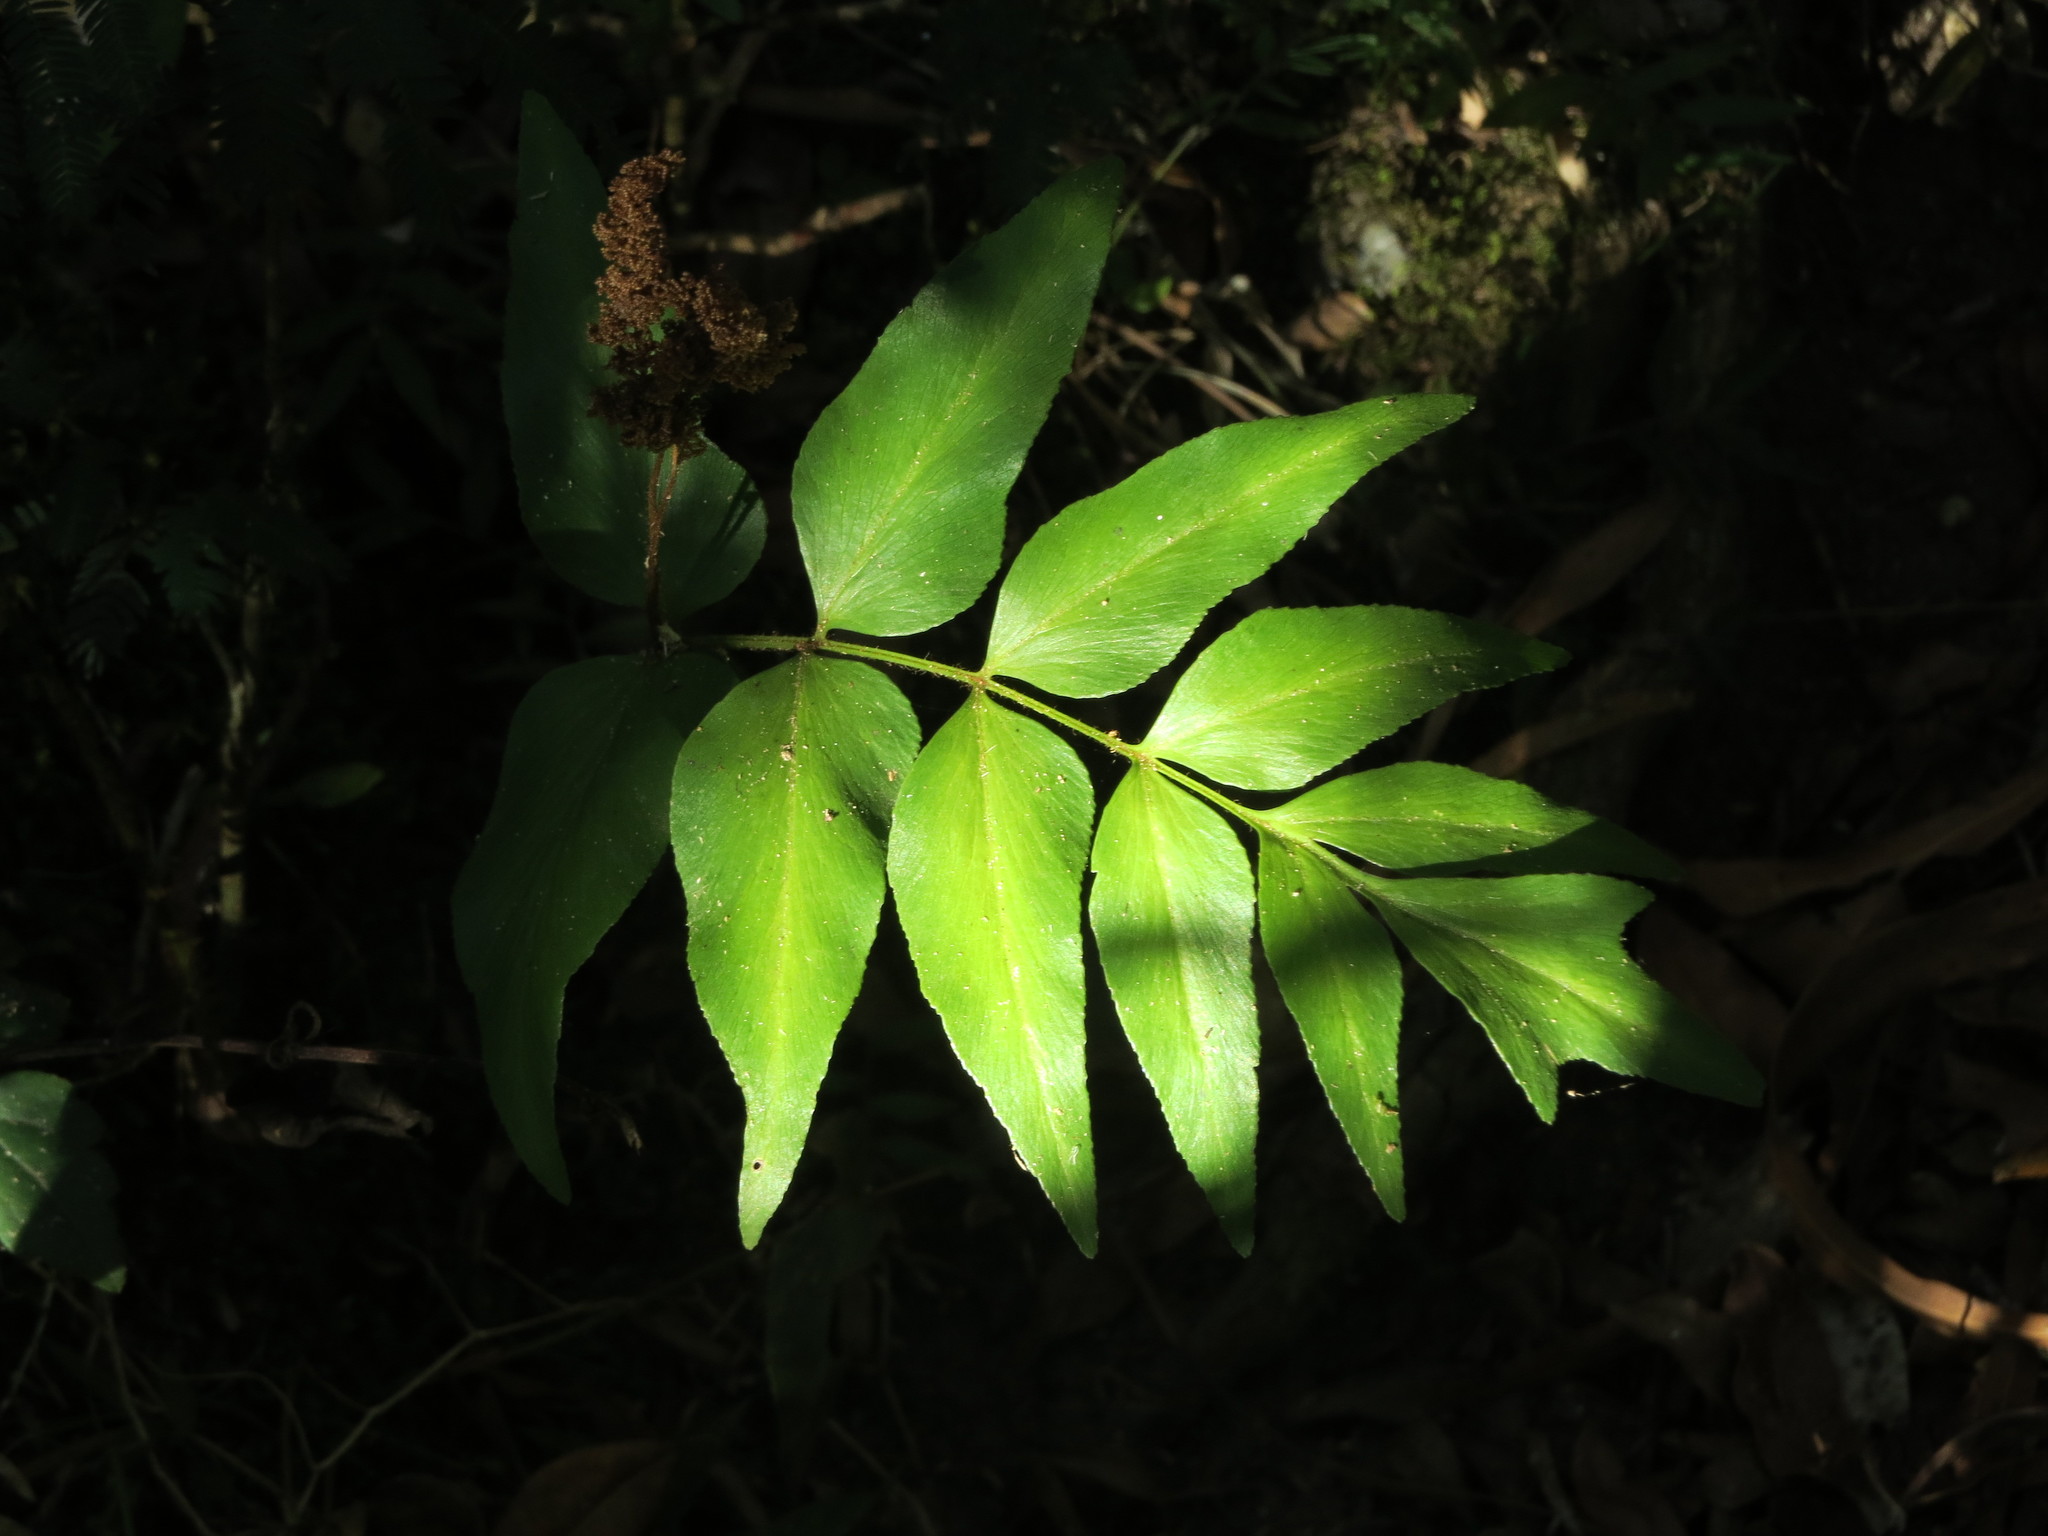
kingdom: Plantae
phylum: Tracheophyta
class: Polypodiopsida
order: Schizaeales
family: Anemiaceae
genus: Anemia
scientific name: Anemia phyllitidis
